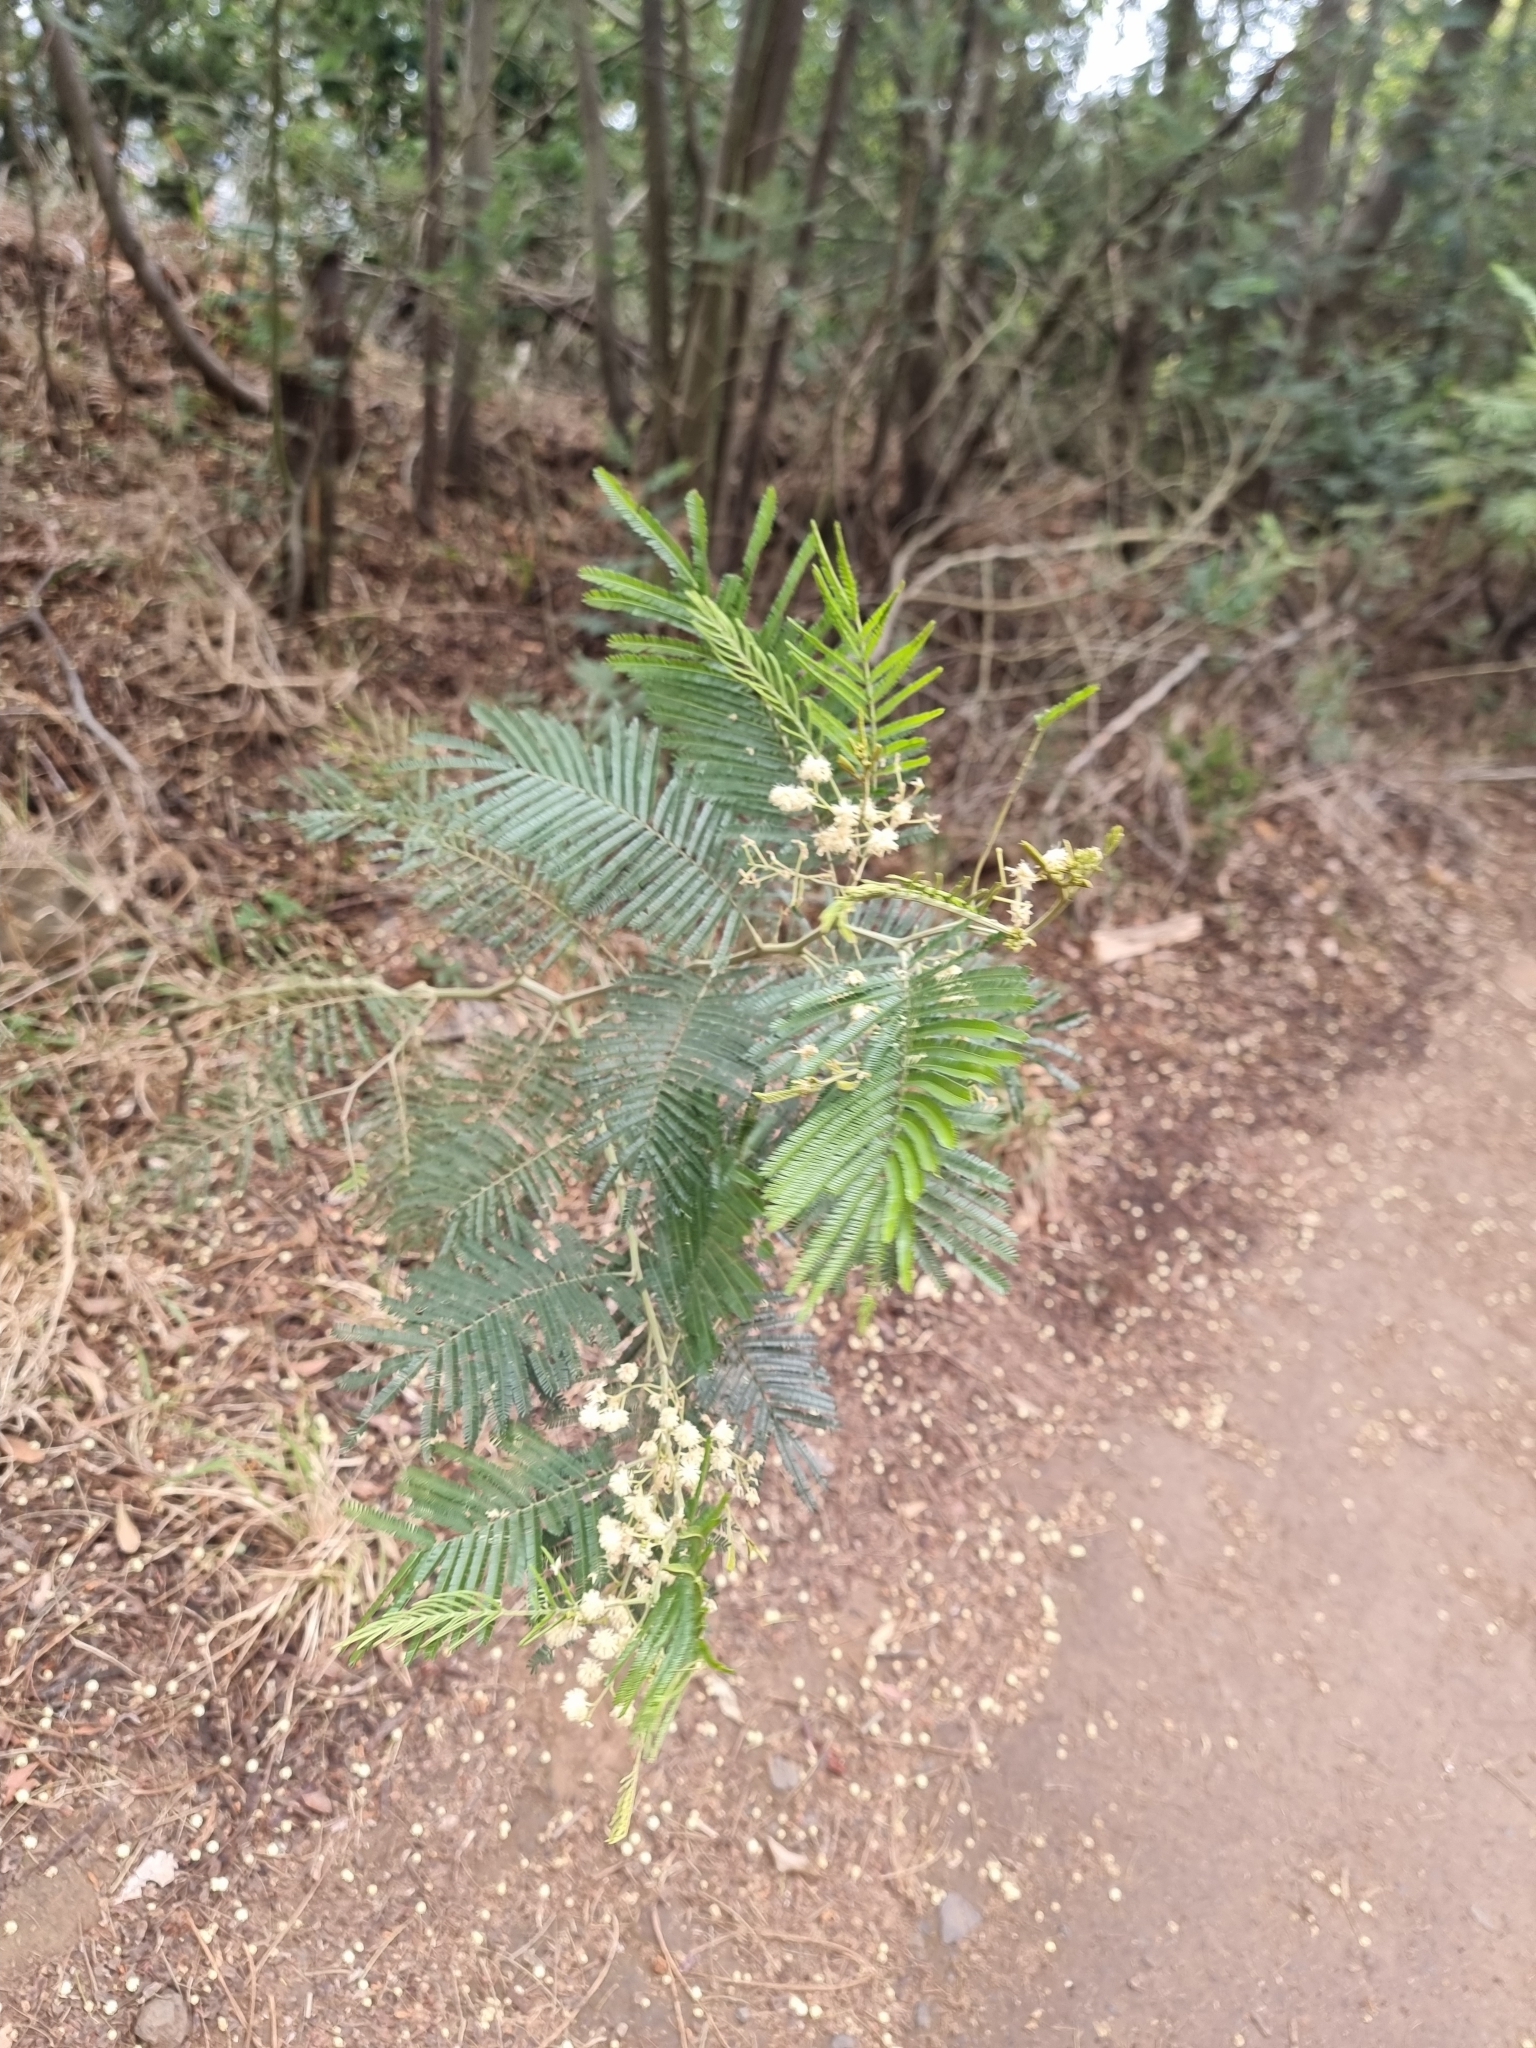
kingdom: Plantae
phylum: Tracheophyta
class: Magnoliopsida
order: Fabales
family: Fabaceae
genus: Acacia
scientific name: Acacia mearnsii
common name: Black wattle
